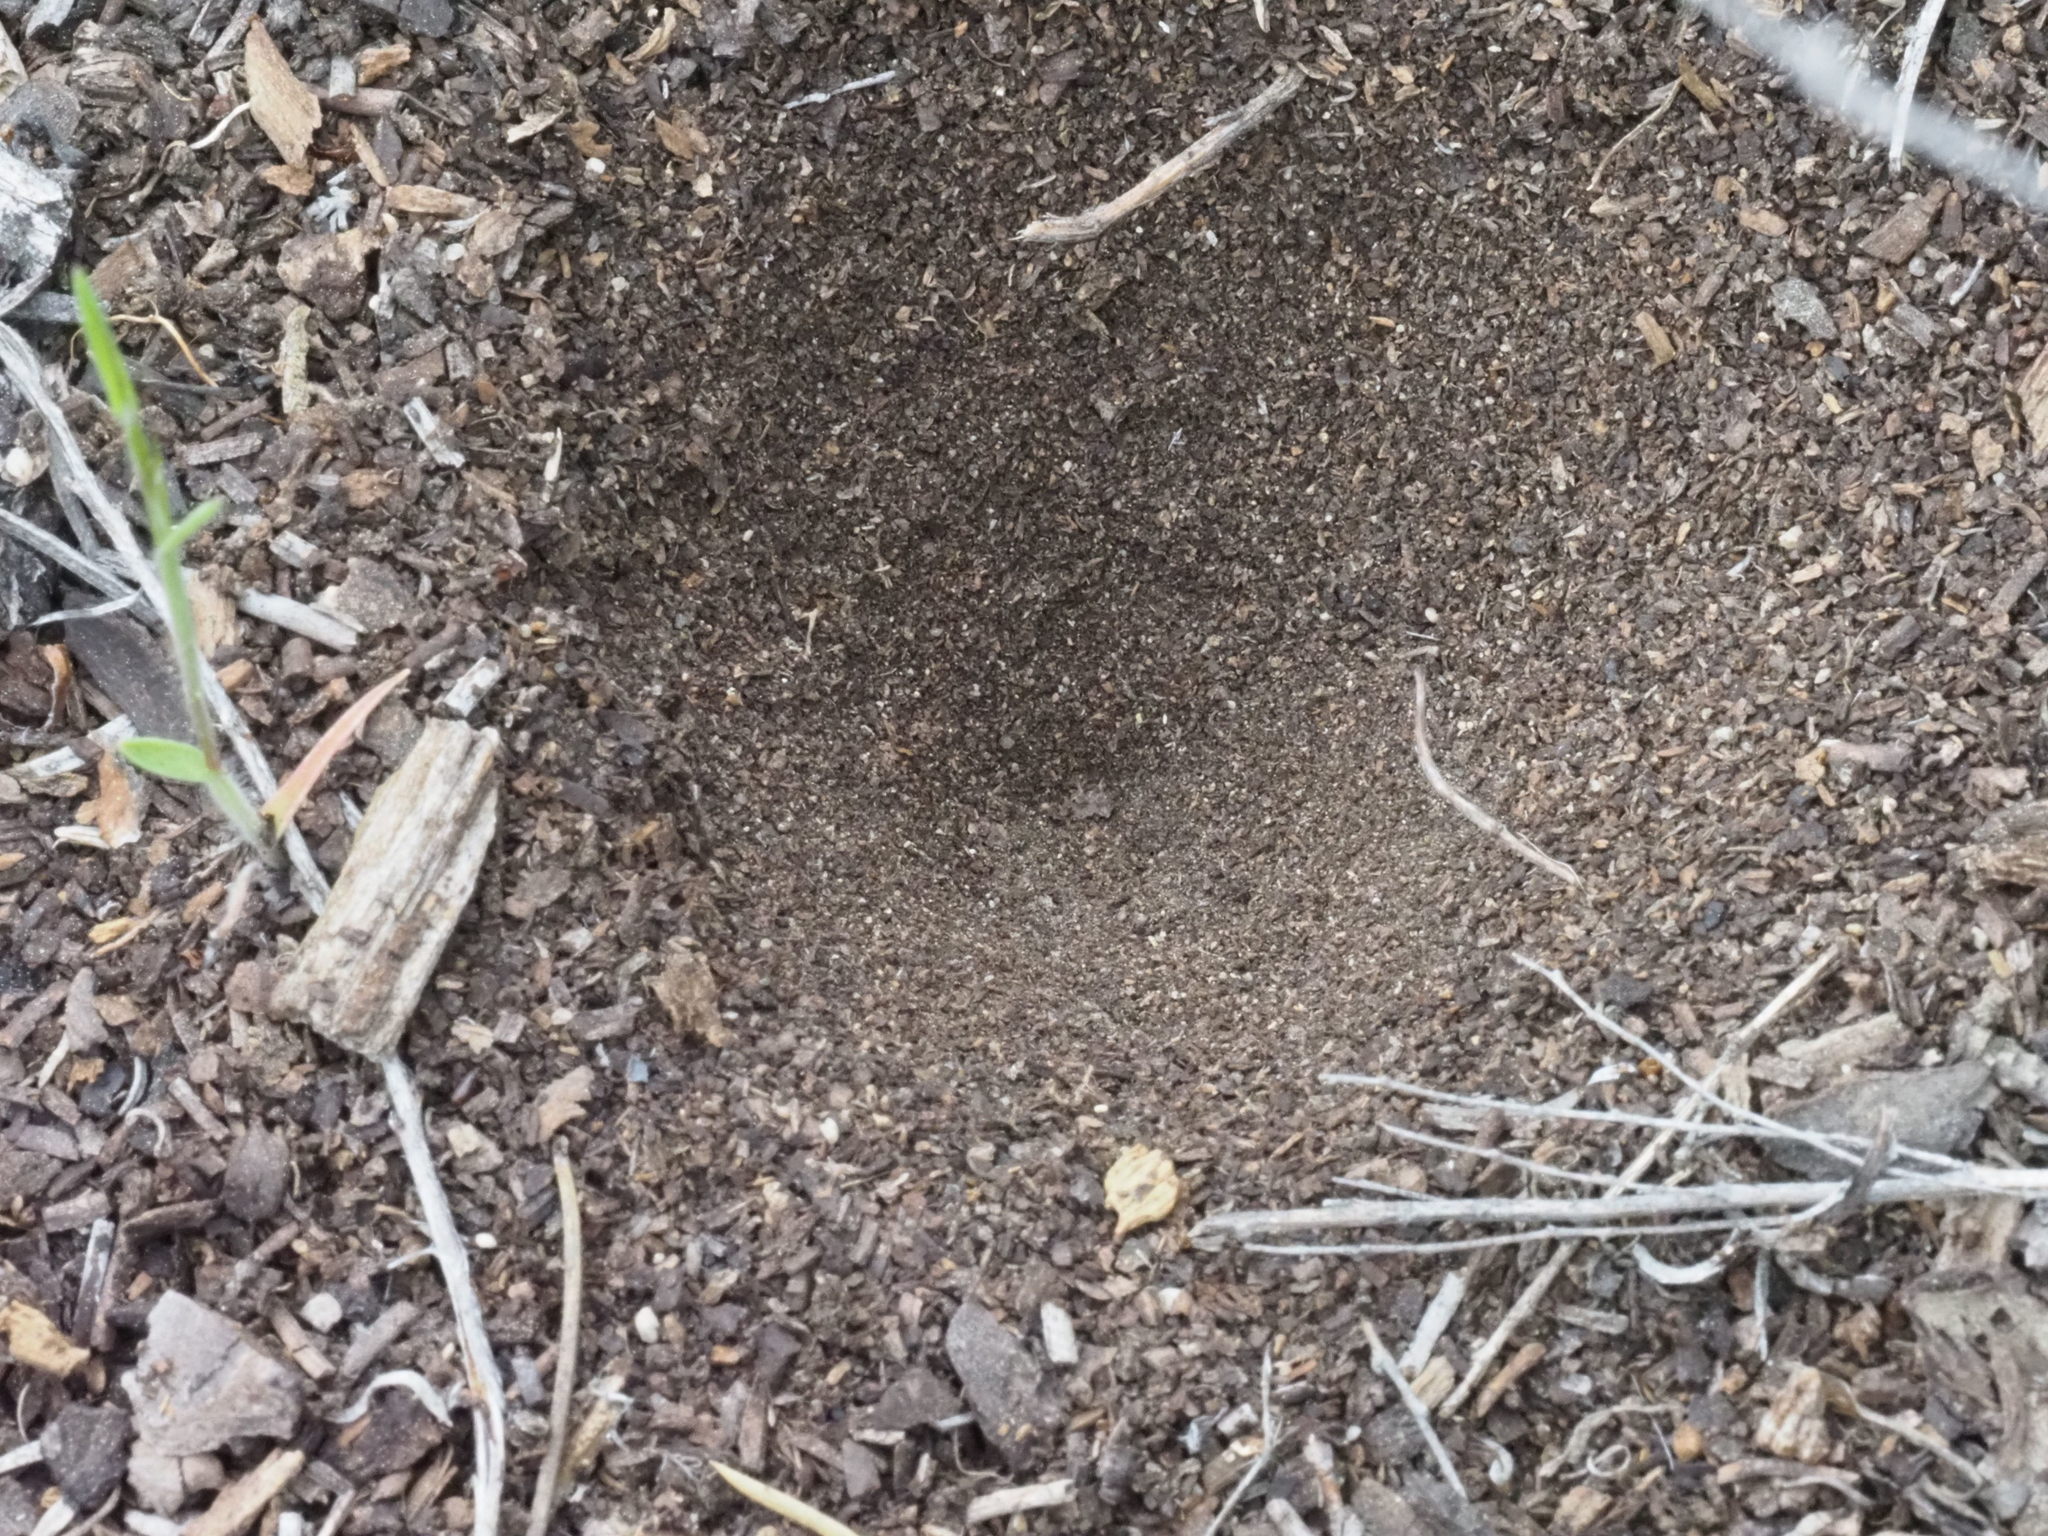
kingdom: Animalia
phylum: Arthropoda
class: Insecta
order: Neuroptera
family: Myrmeleontidae
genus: Myrmeleon
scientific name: Myrmeleon exitialis
